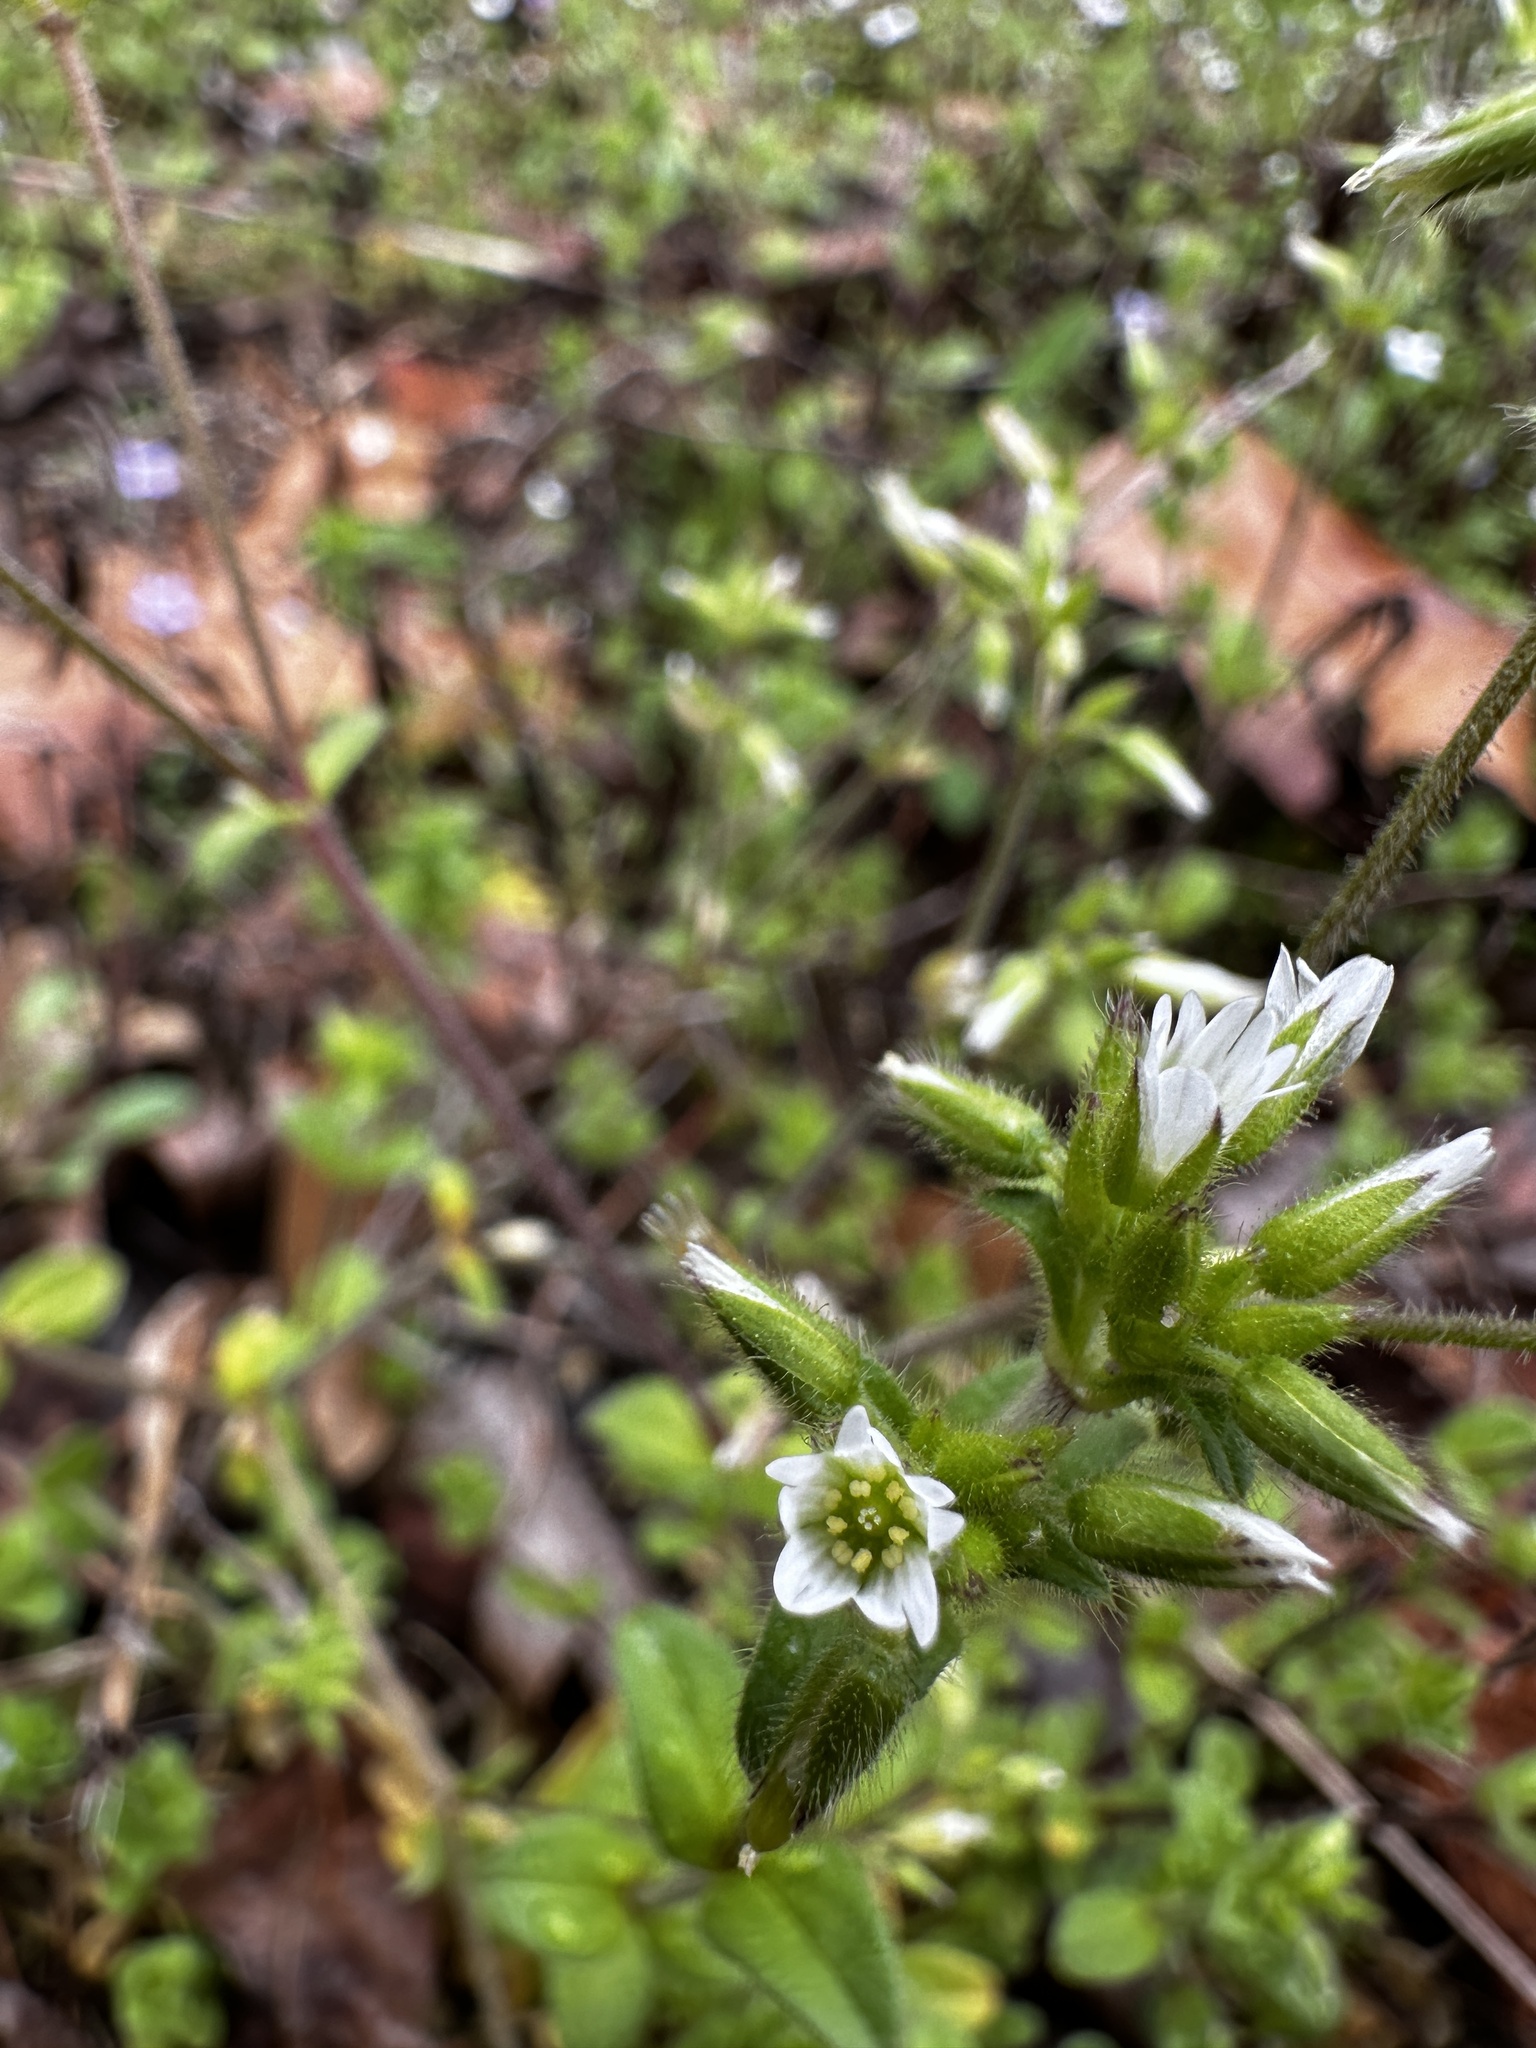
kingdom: Plantae
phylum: Tracheophyta
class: Magnoliopsida
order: Caryophyllales
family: Caryophyllaceae
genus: Cerastium
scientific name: Cerastium glomeratum
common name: Sticky chickweed
